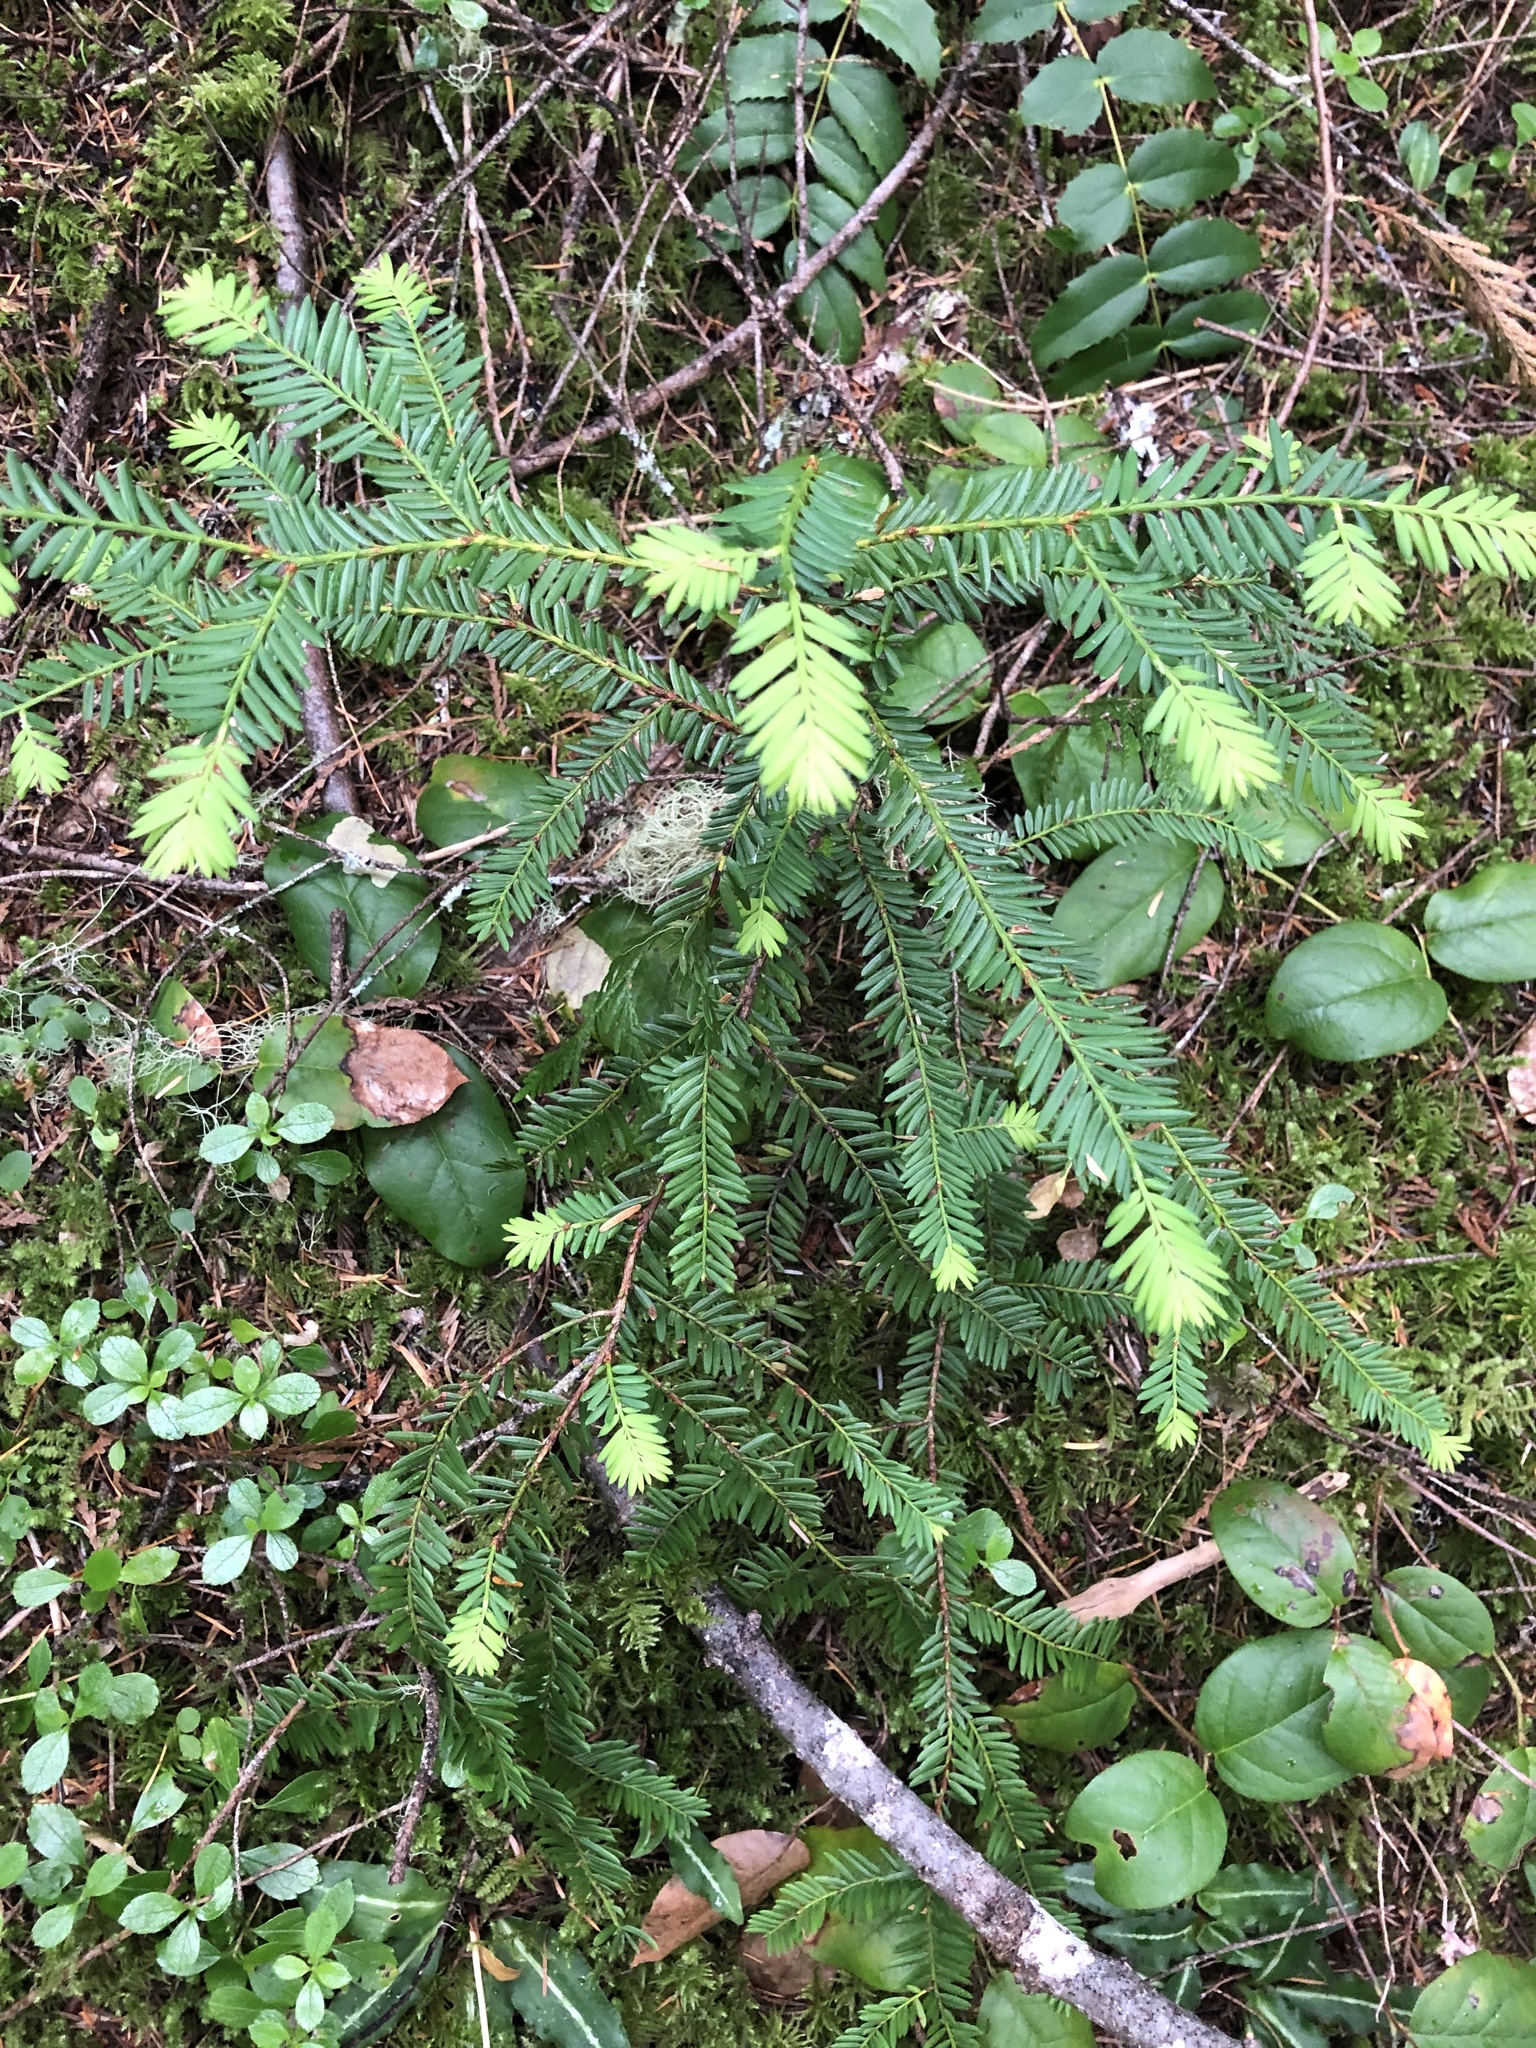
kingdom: Plantae
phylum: Tracheophyta
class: Pinopsida
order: Pinales
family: Taxaceae
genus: Taxus
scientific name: Taxus brevifolia
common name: Pacific yew
